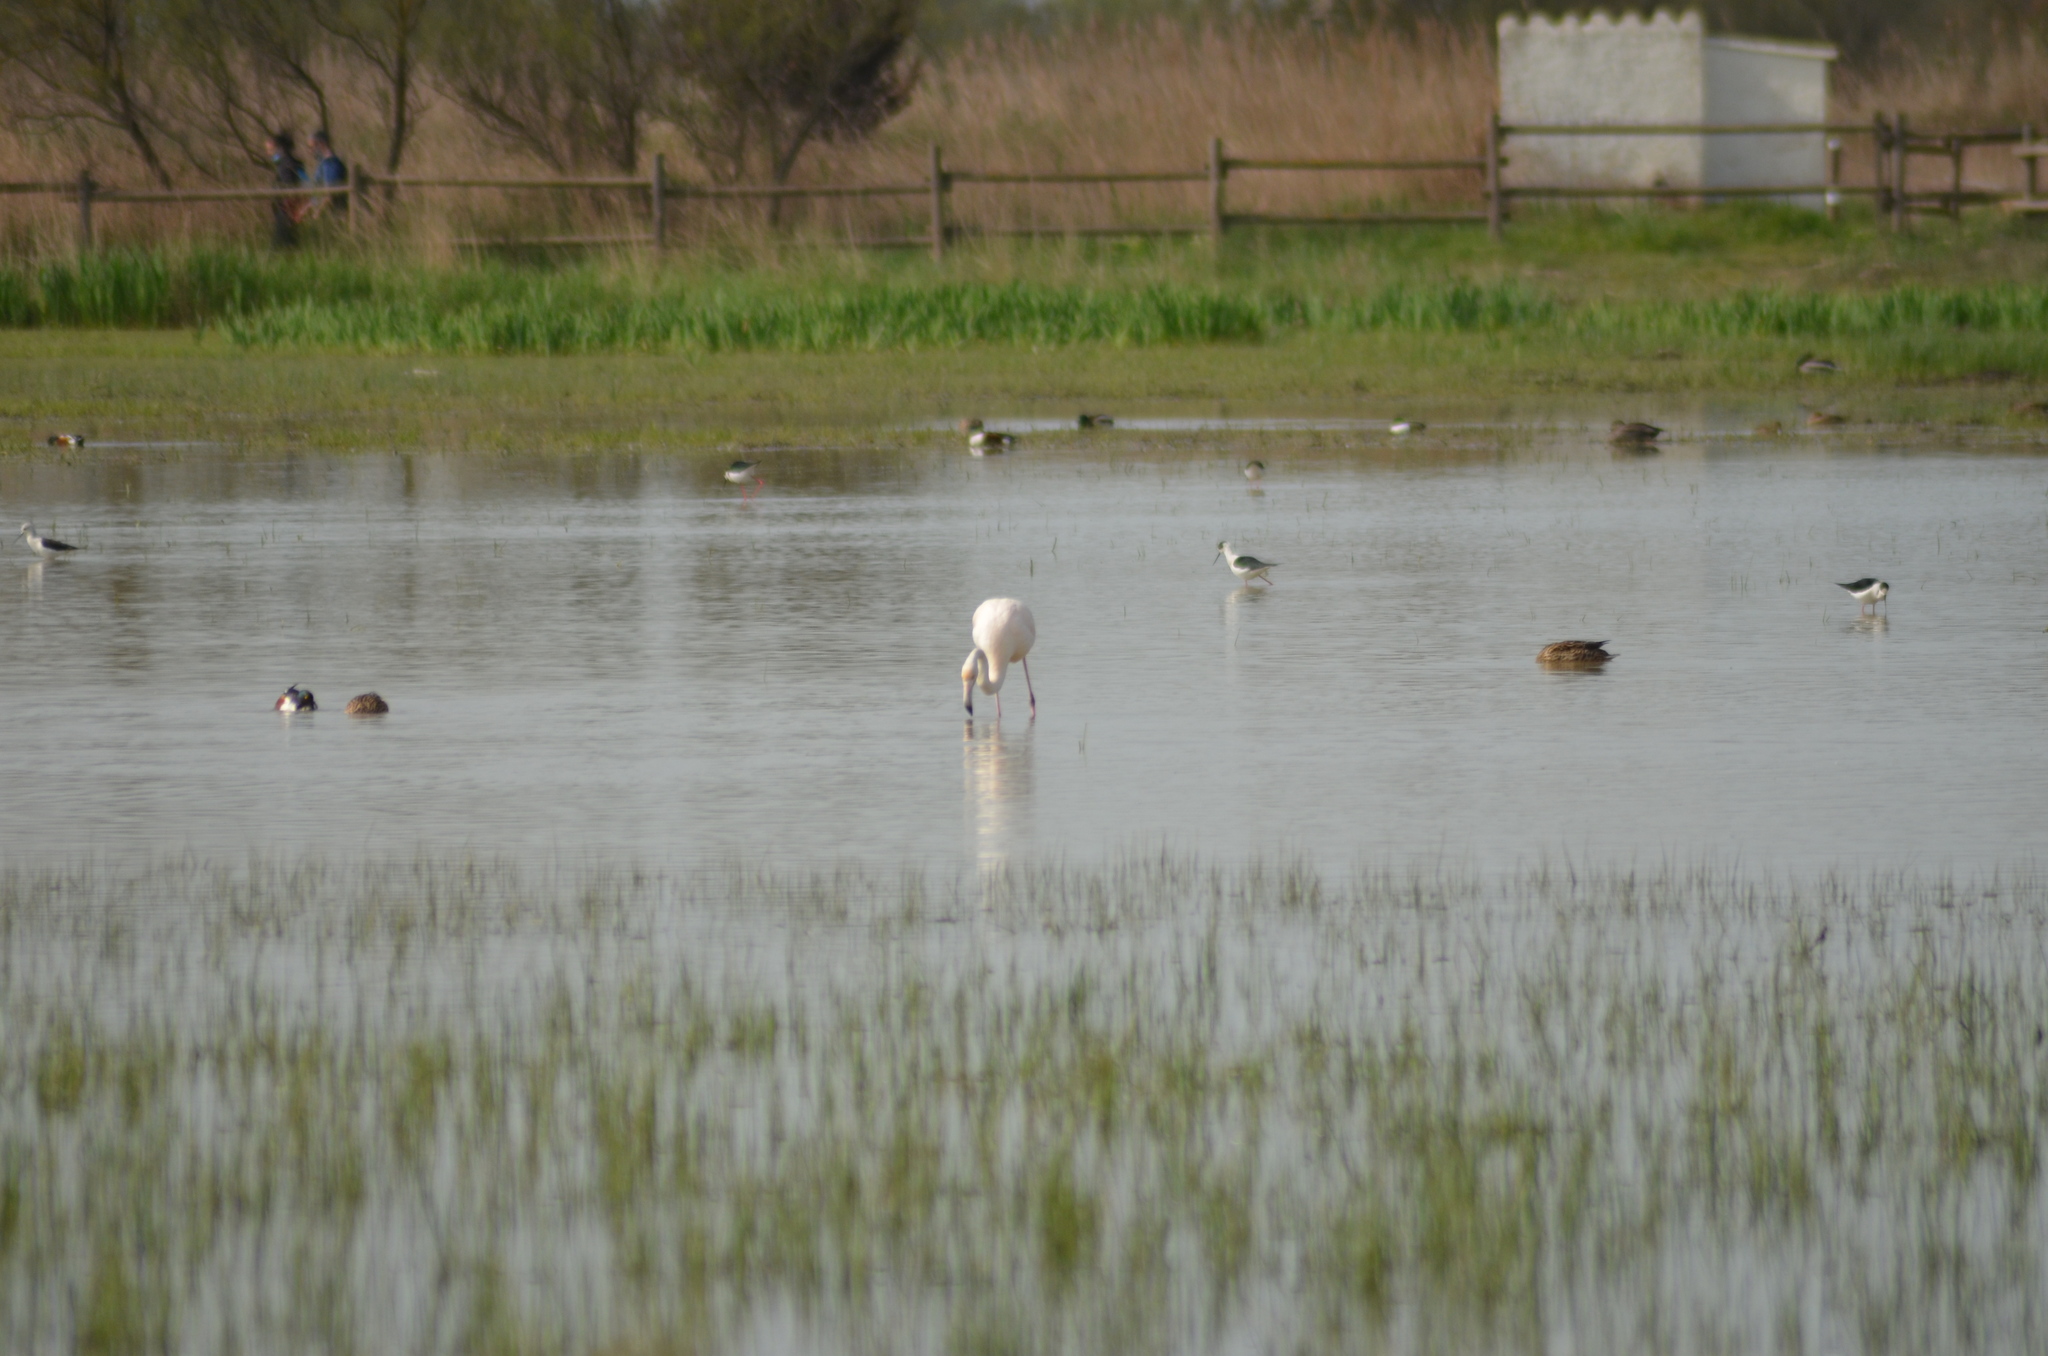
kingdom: Animalia
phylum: Chordata
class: Aves
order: Phoenicopteriformes
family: Phoenicopteridae
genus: Phoenicopterus
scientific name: Phoenicopterus roseus
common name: Greater flamingo
